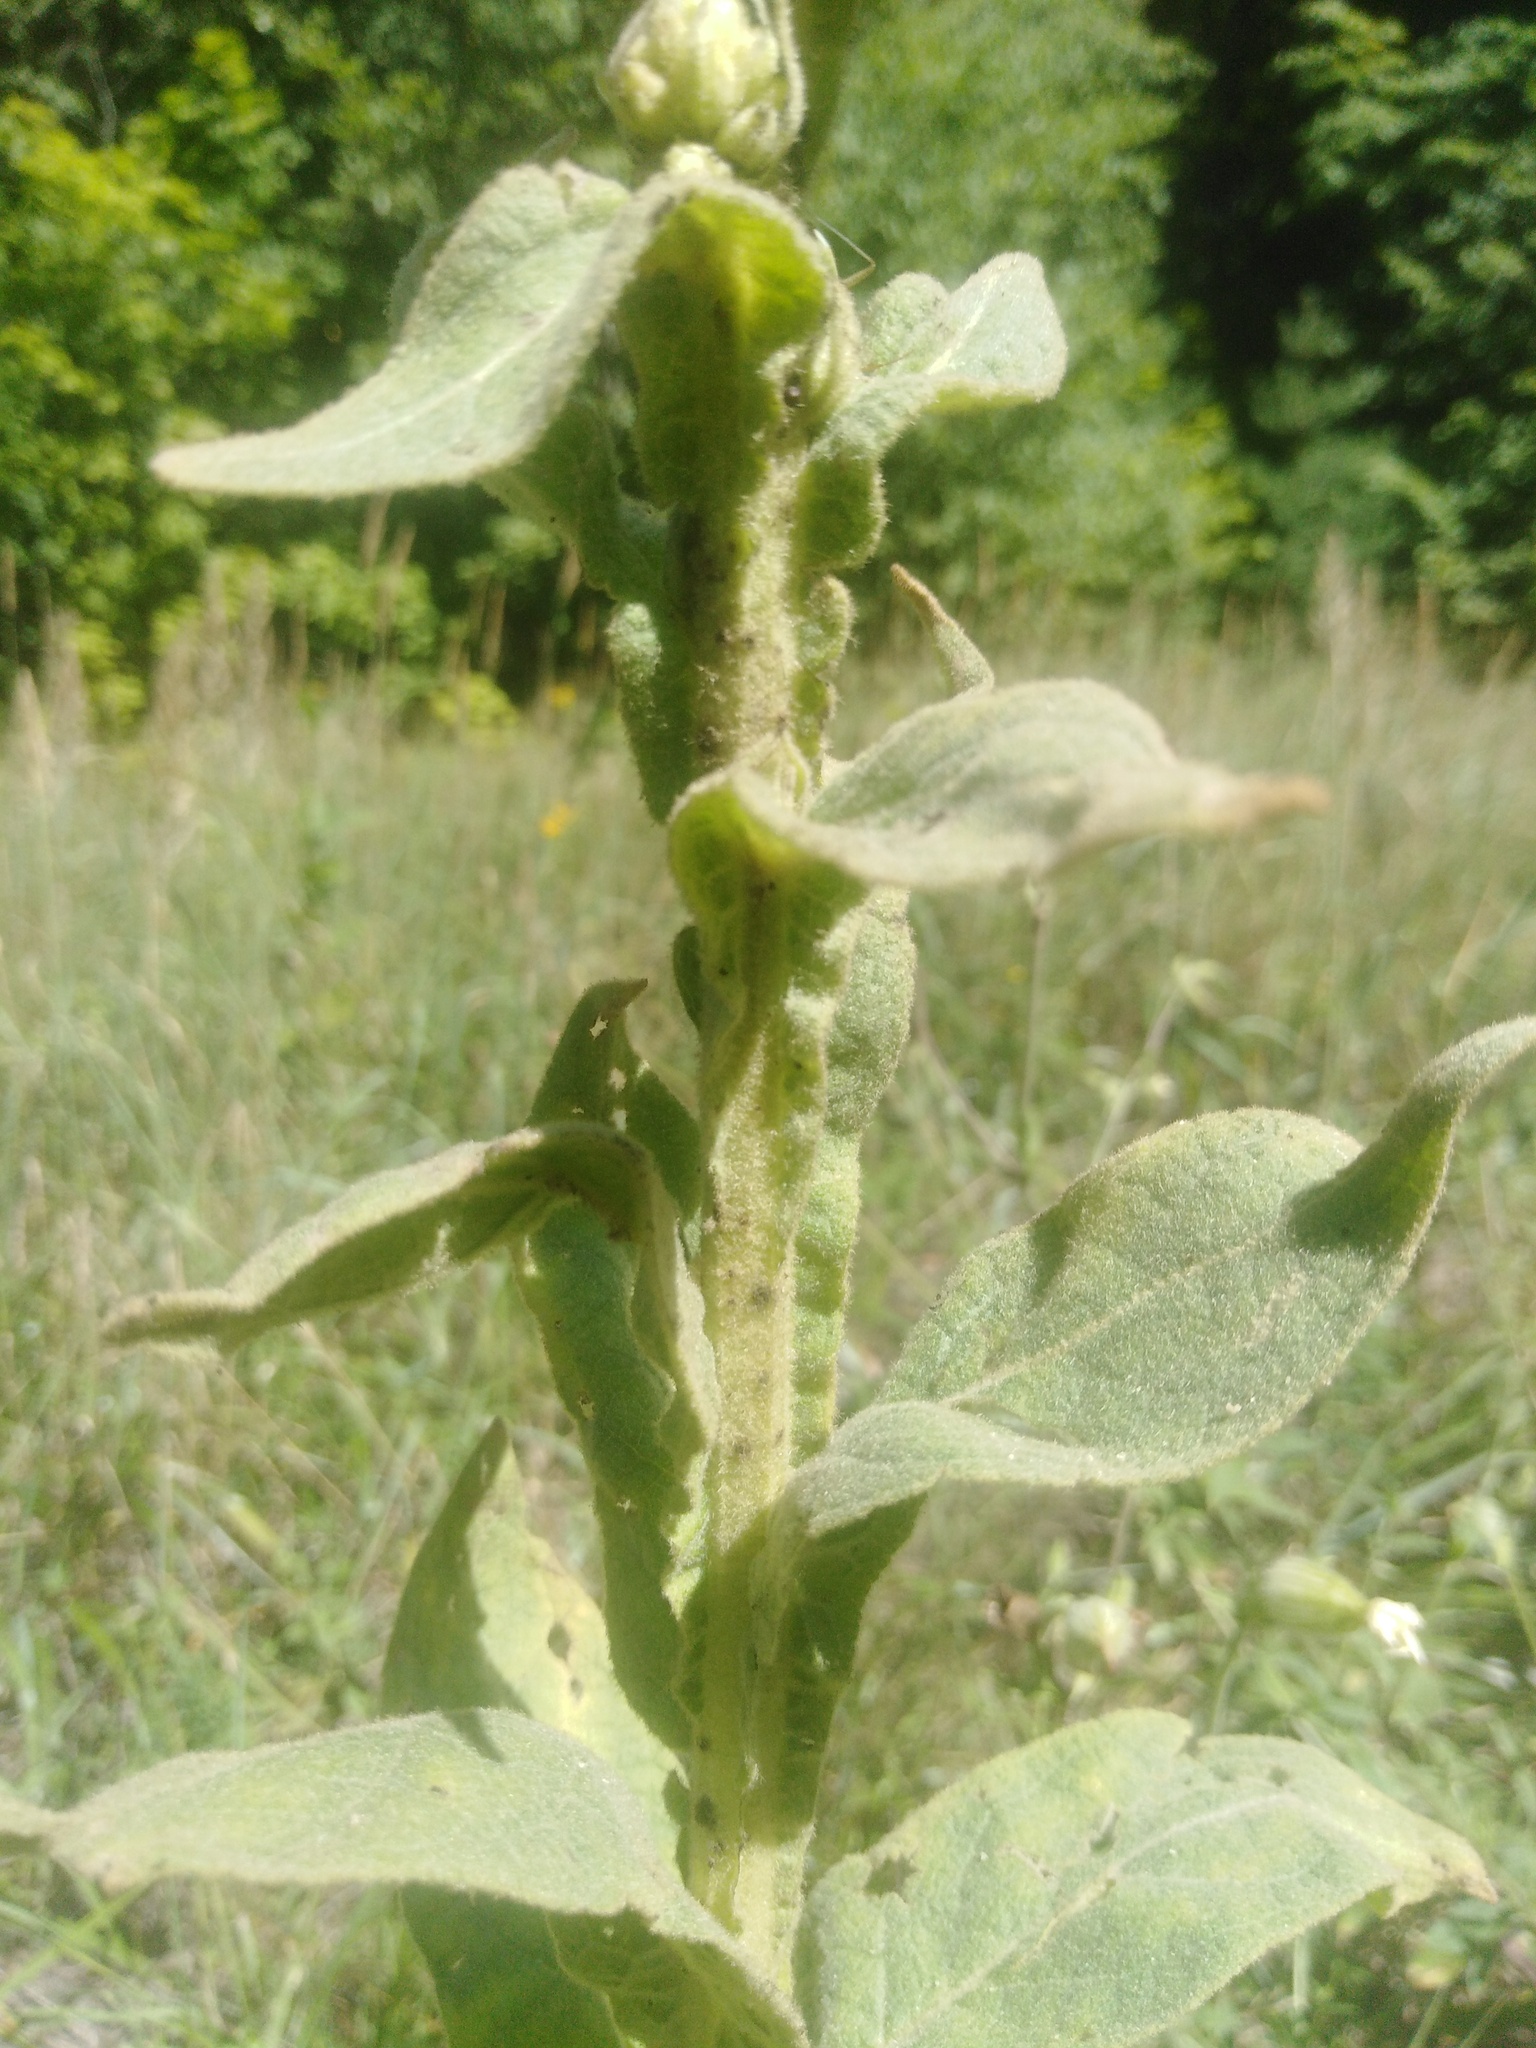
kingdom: Plantae
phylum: Tracheophyta
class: Magnoliopsida
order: Lamiales
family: Scrophulariaceae
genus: Verbascum
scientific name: Verbascum thapsus
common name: Common mullein
